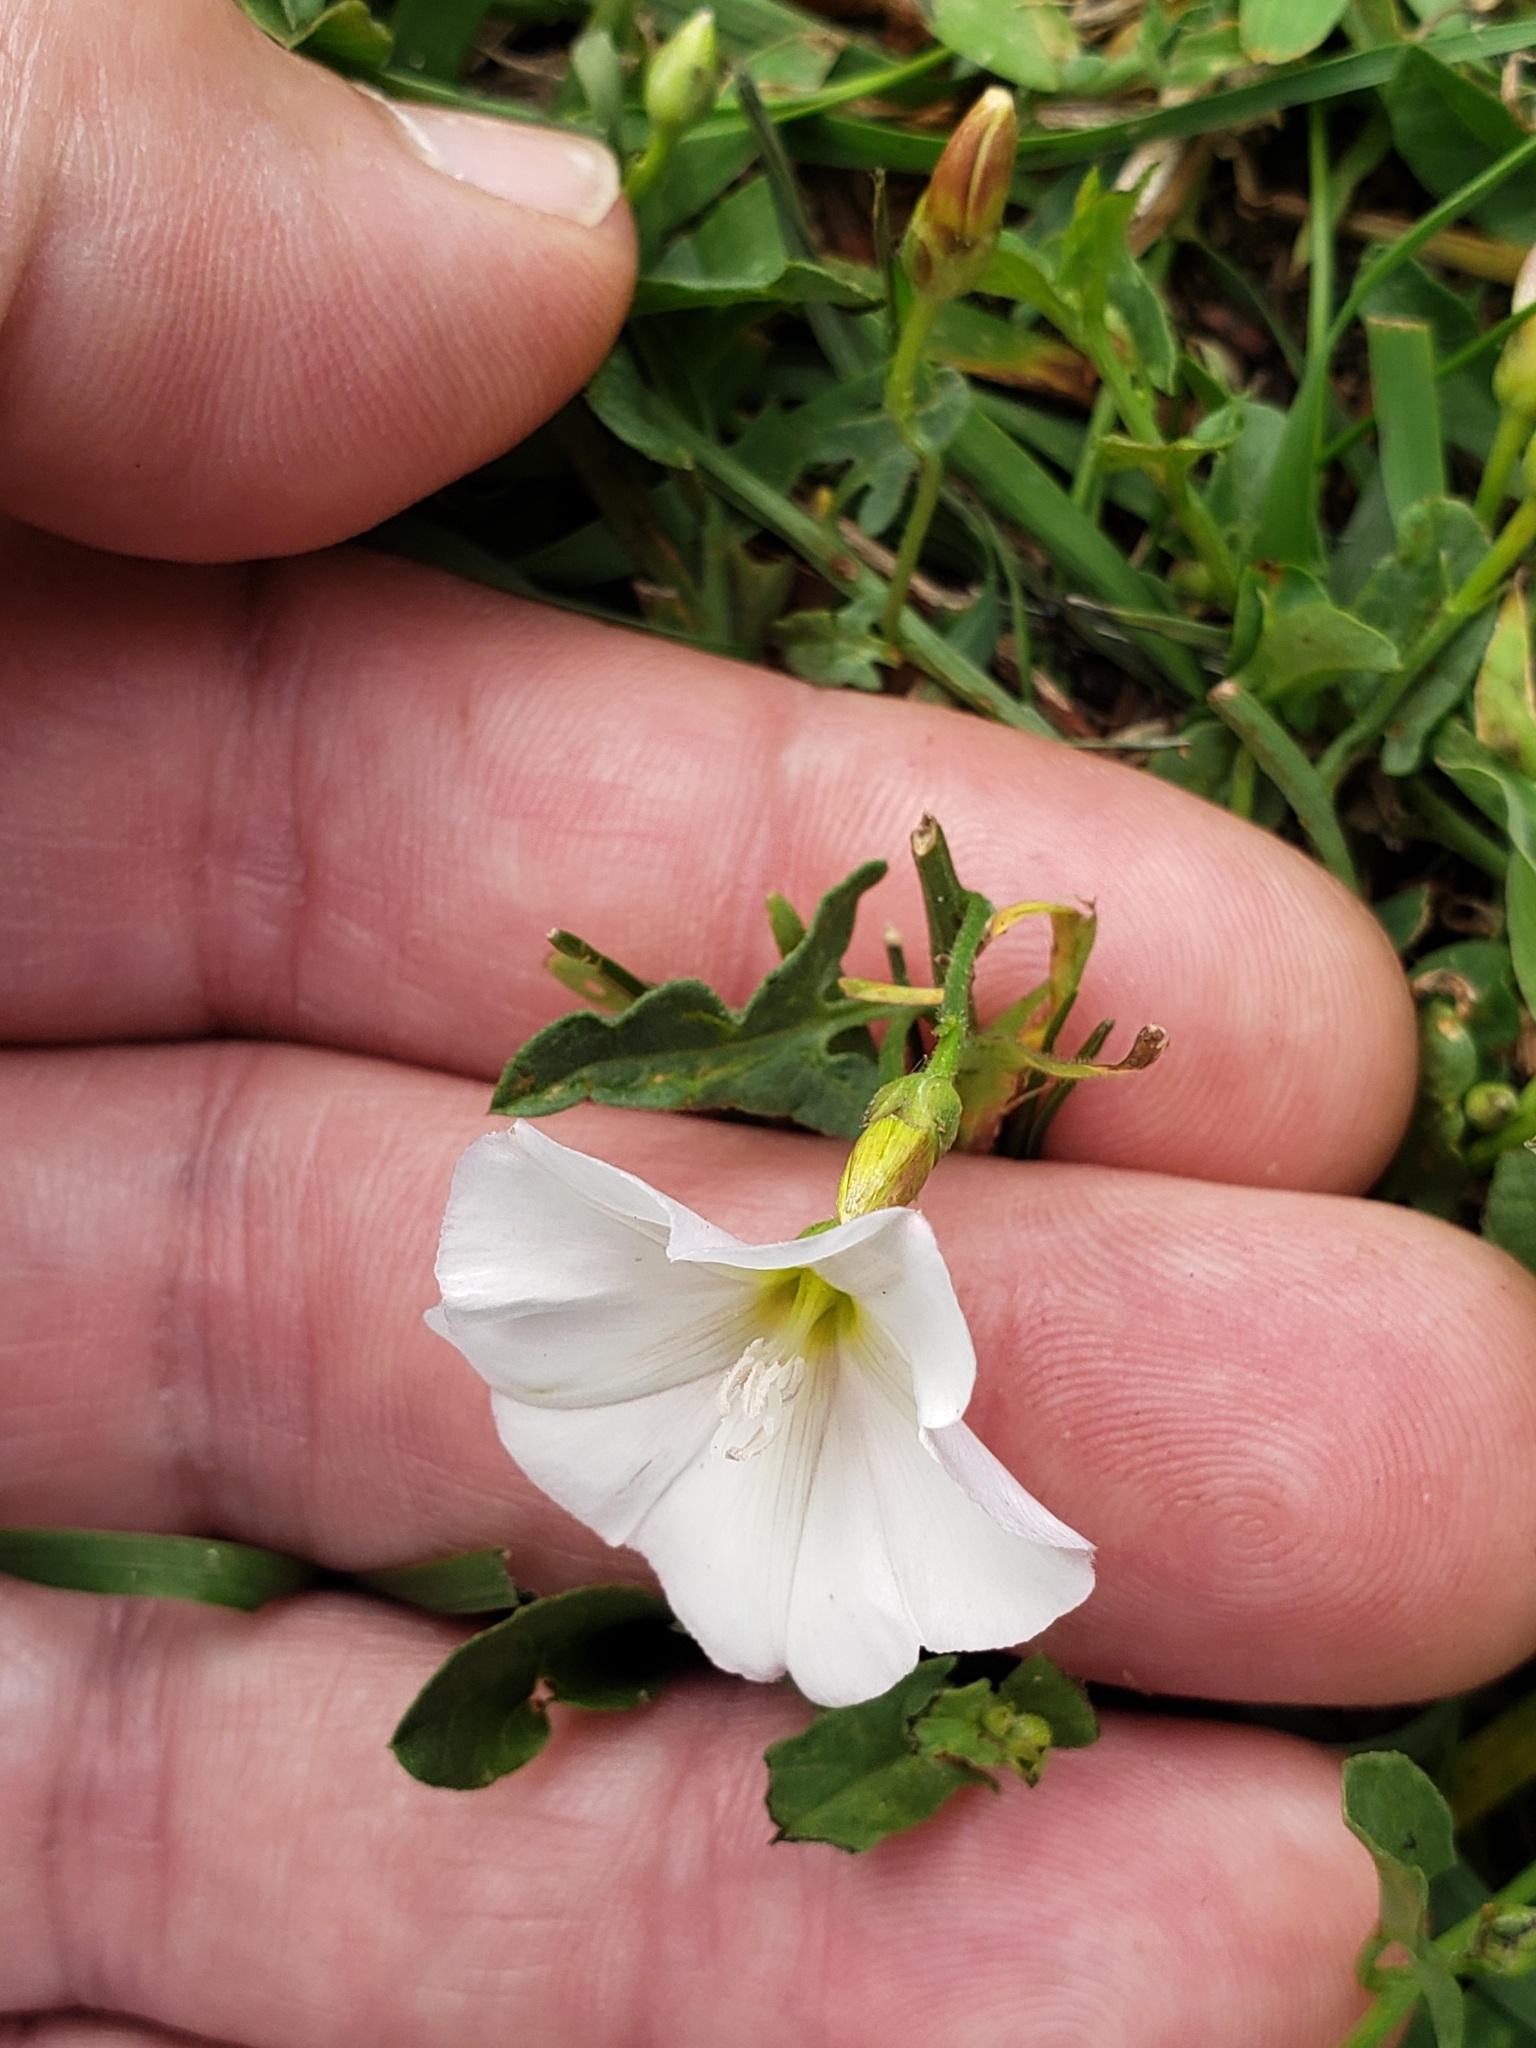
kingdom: Plantae
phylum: Tracheophyta
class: Magnoliopsida
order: Solanales
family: Convolvulaceae
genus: Convolvulus
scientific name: Convolvulus arvensis
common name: Field bindweed
